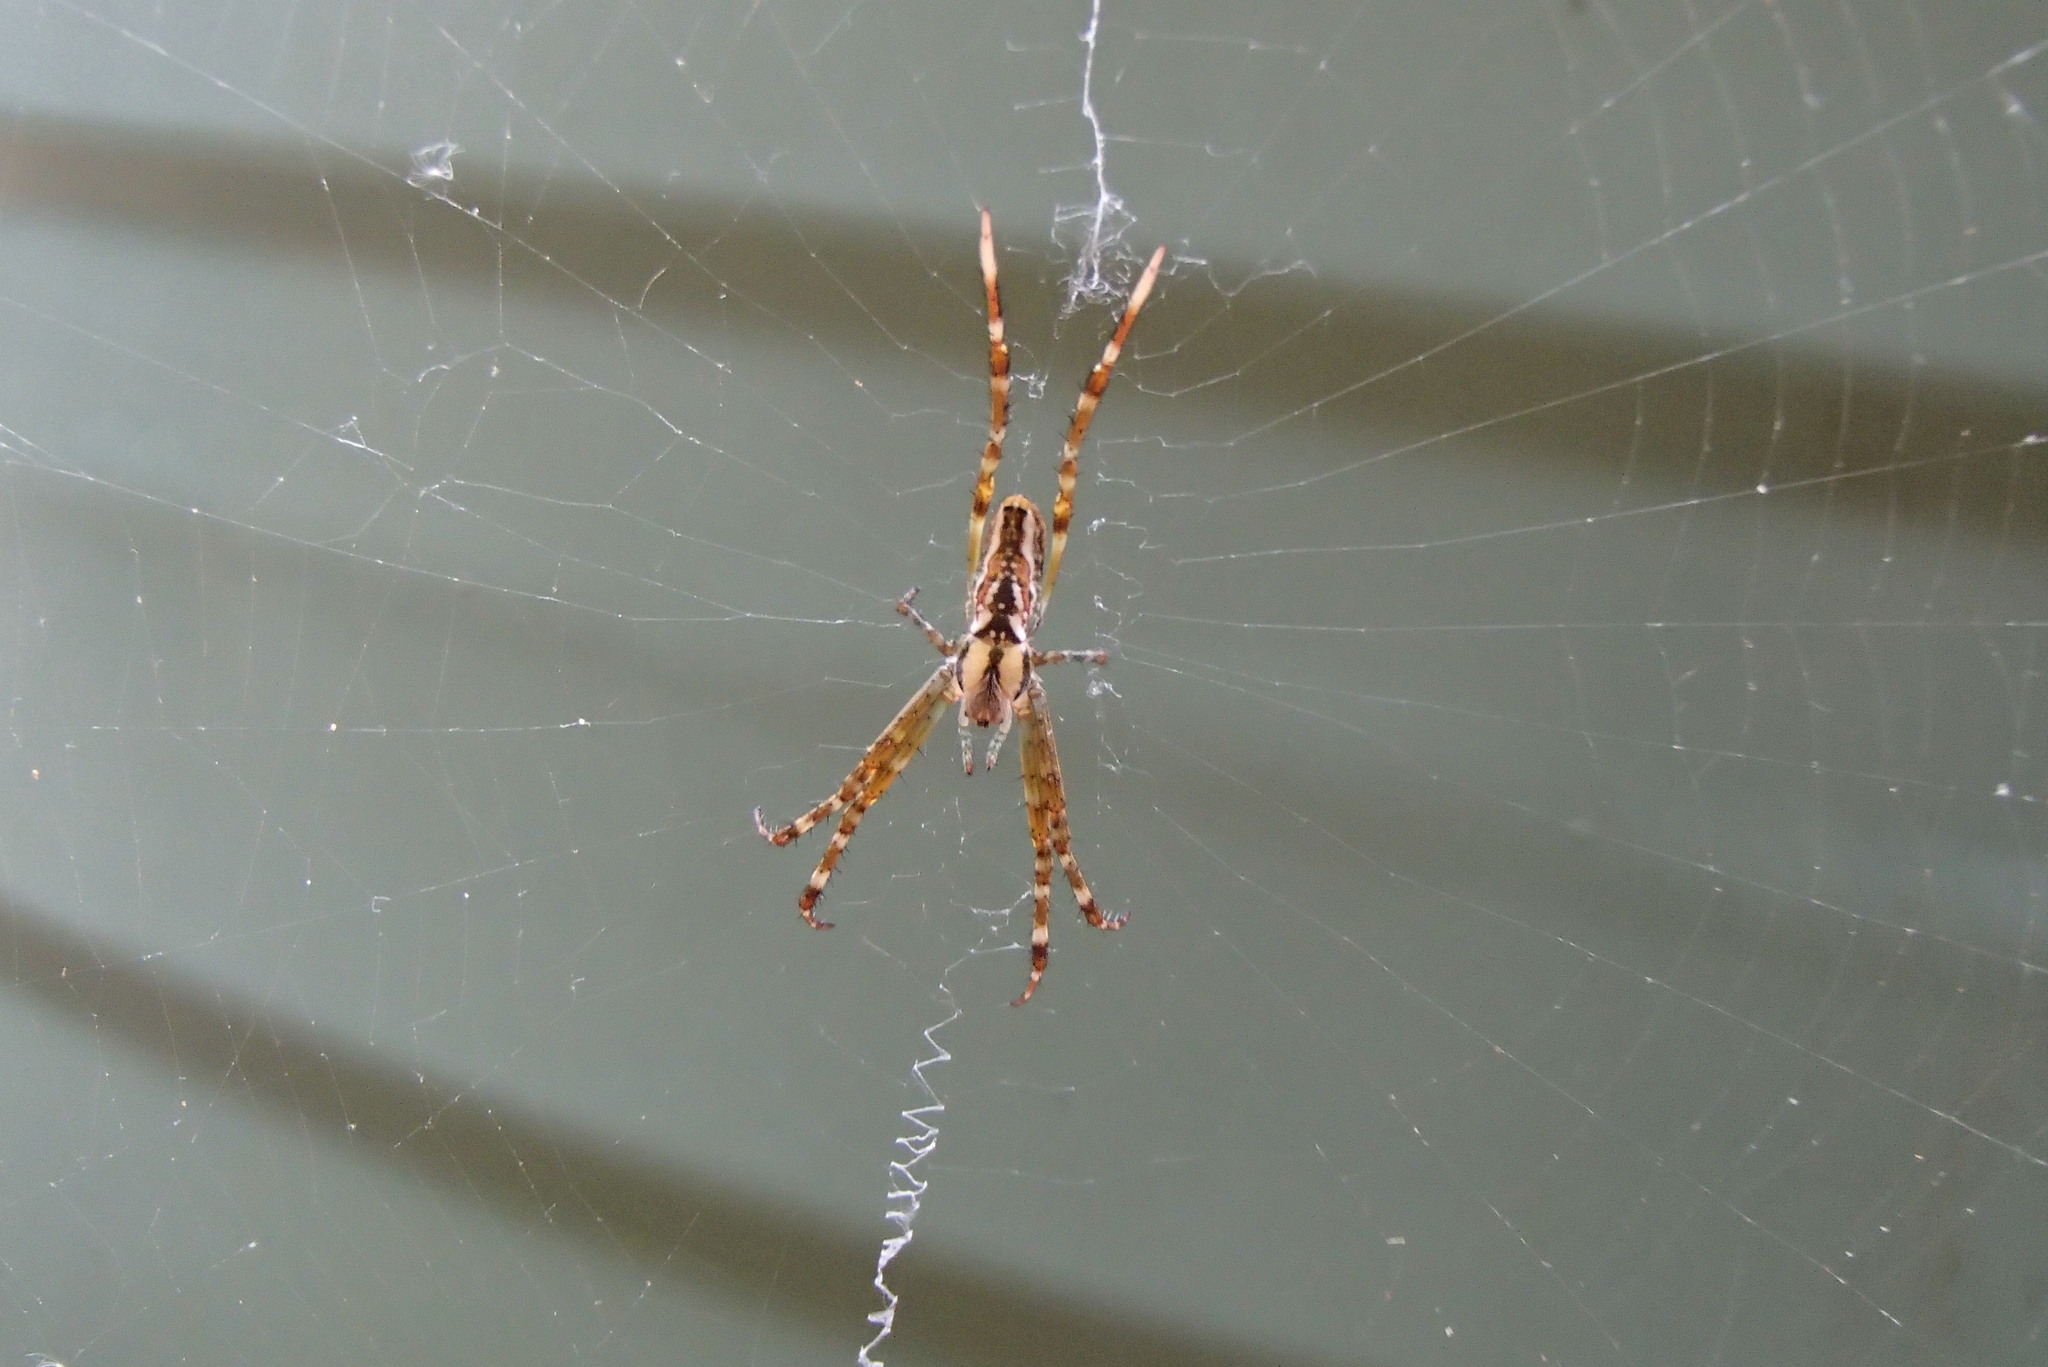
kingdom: Animalia
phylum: Arthropoda
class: Arachnida
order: Araneae
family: Araneidae
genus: Plebs
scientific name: Plebs bradleyi
